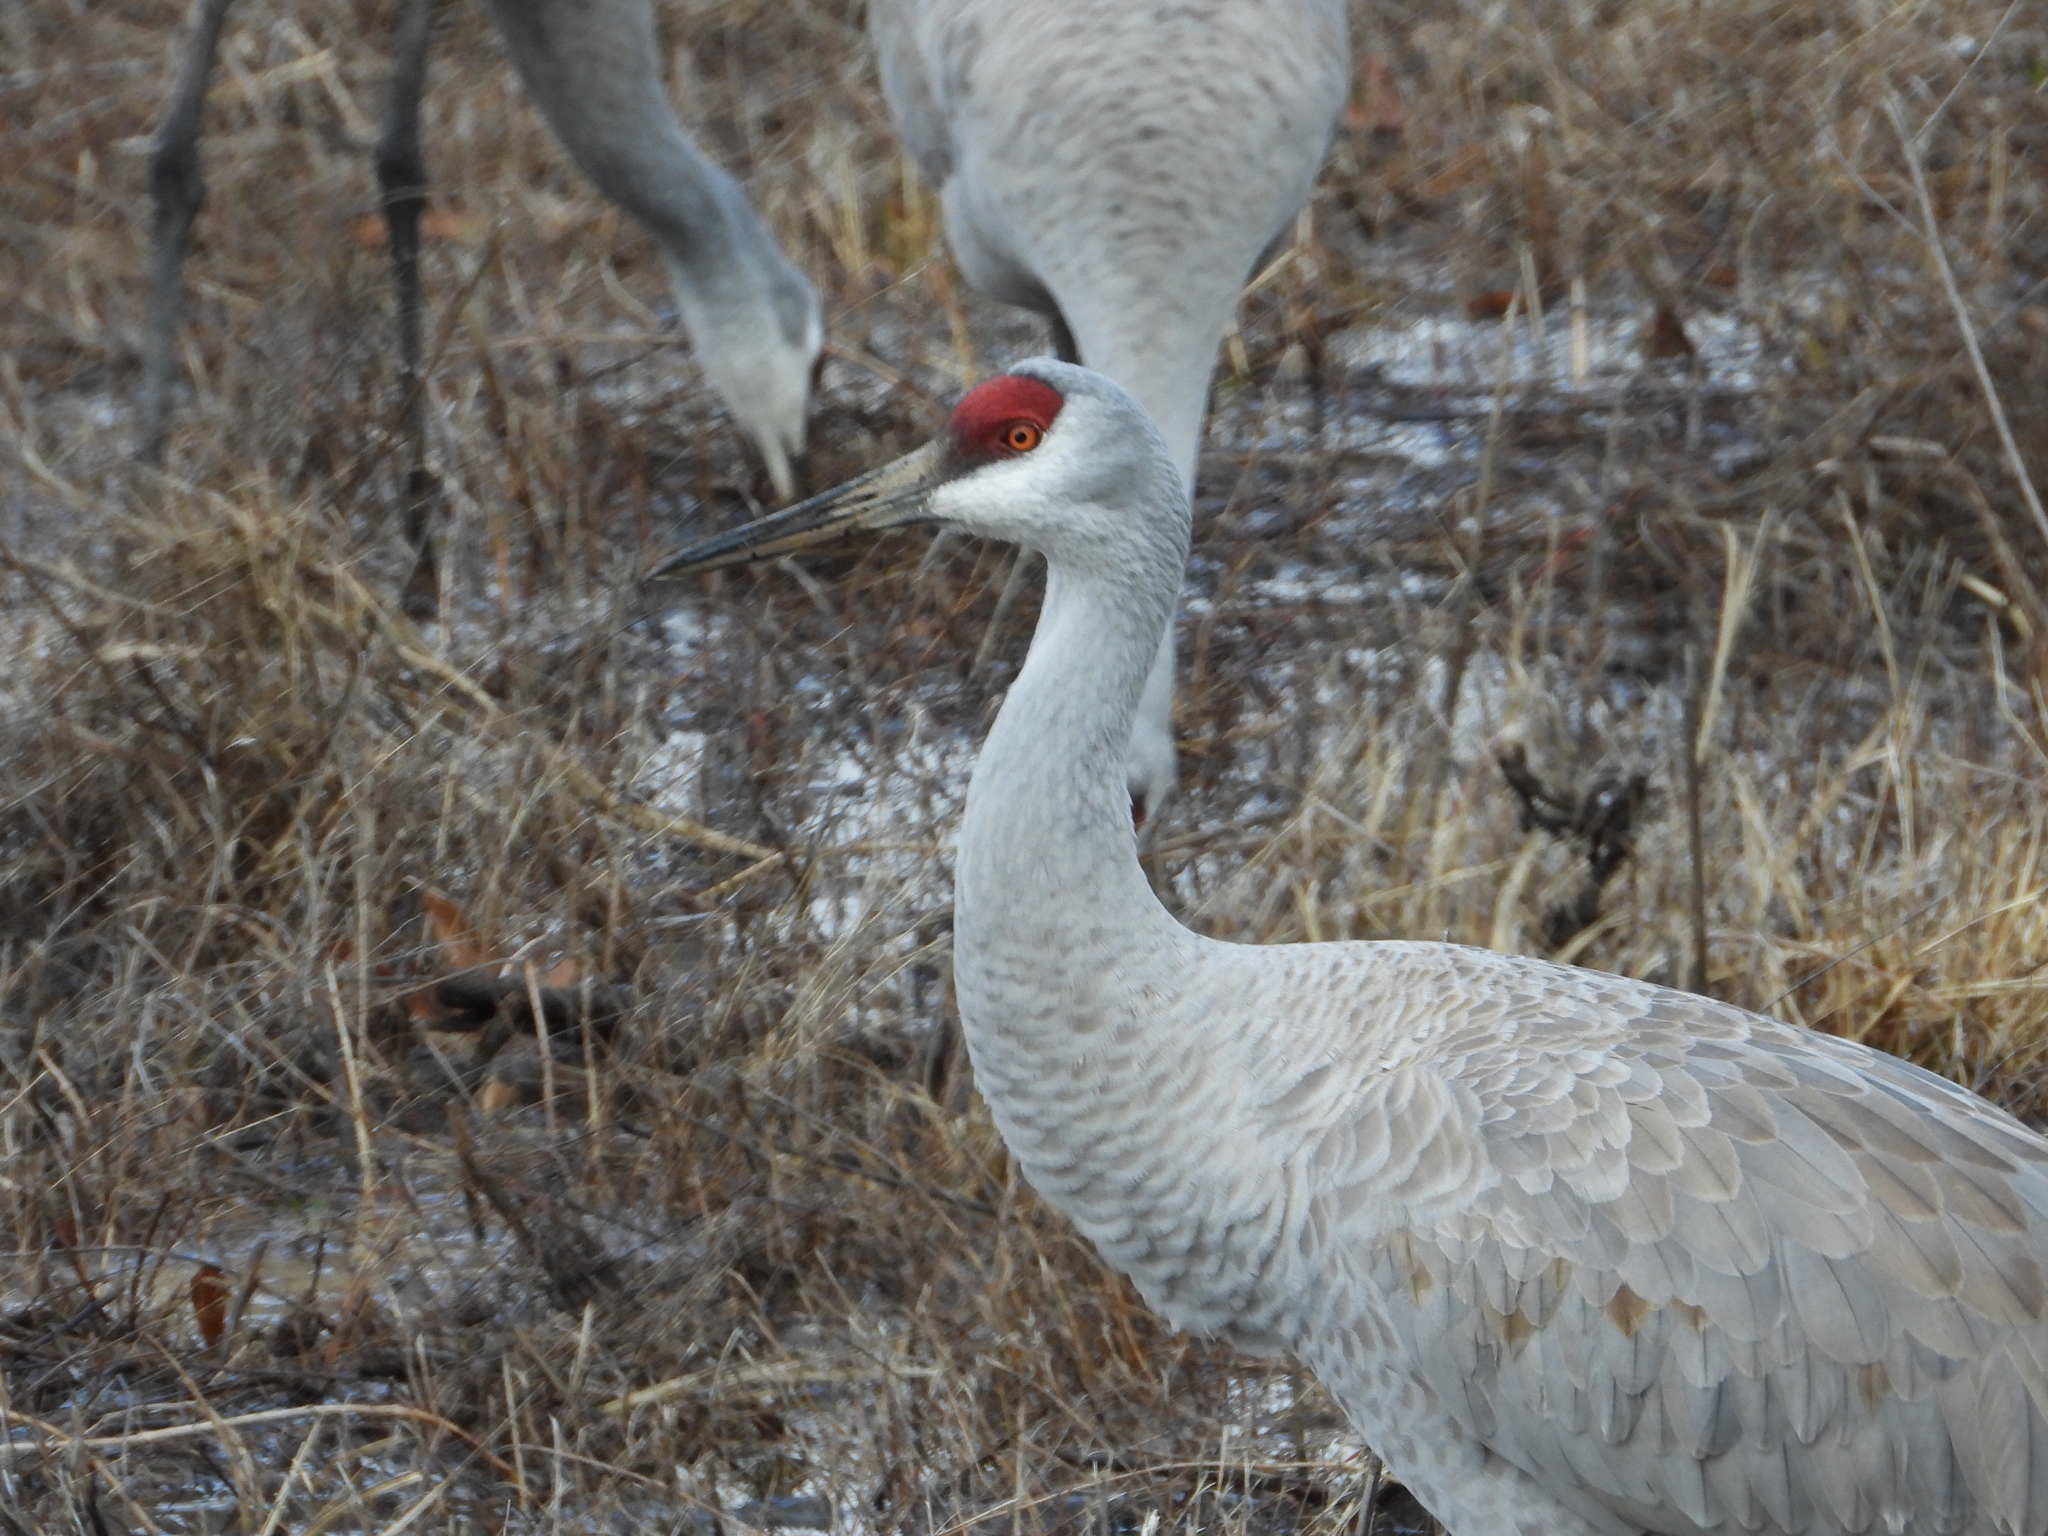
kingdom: Animalia
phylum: Chordata
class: Aves
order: Gruiformes
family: Gruidae
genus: Grus
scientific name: Grus canadensis
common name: Sandhill crane
